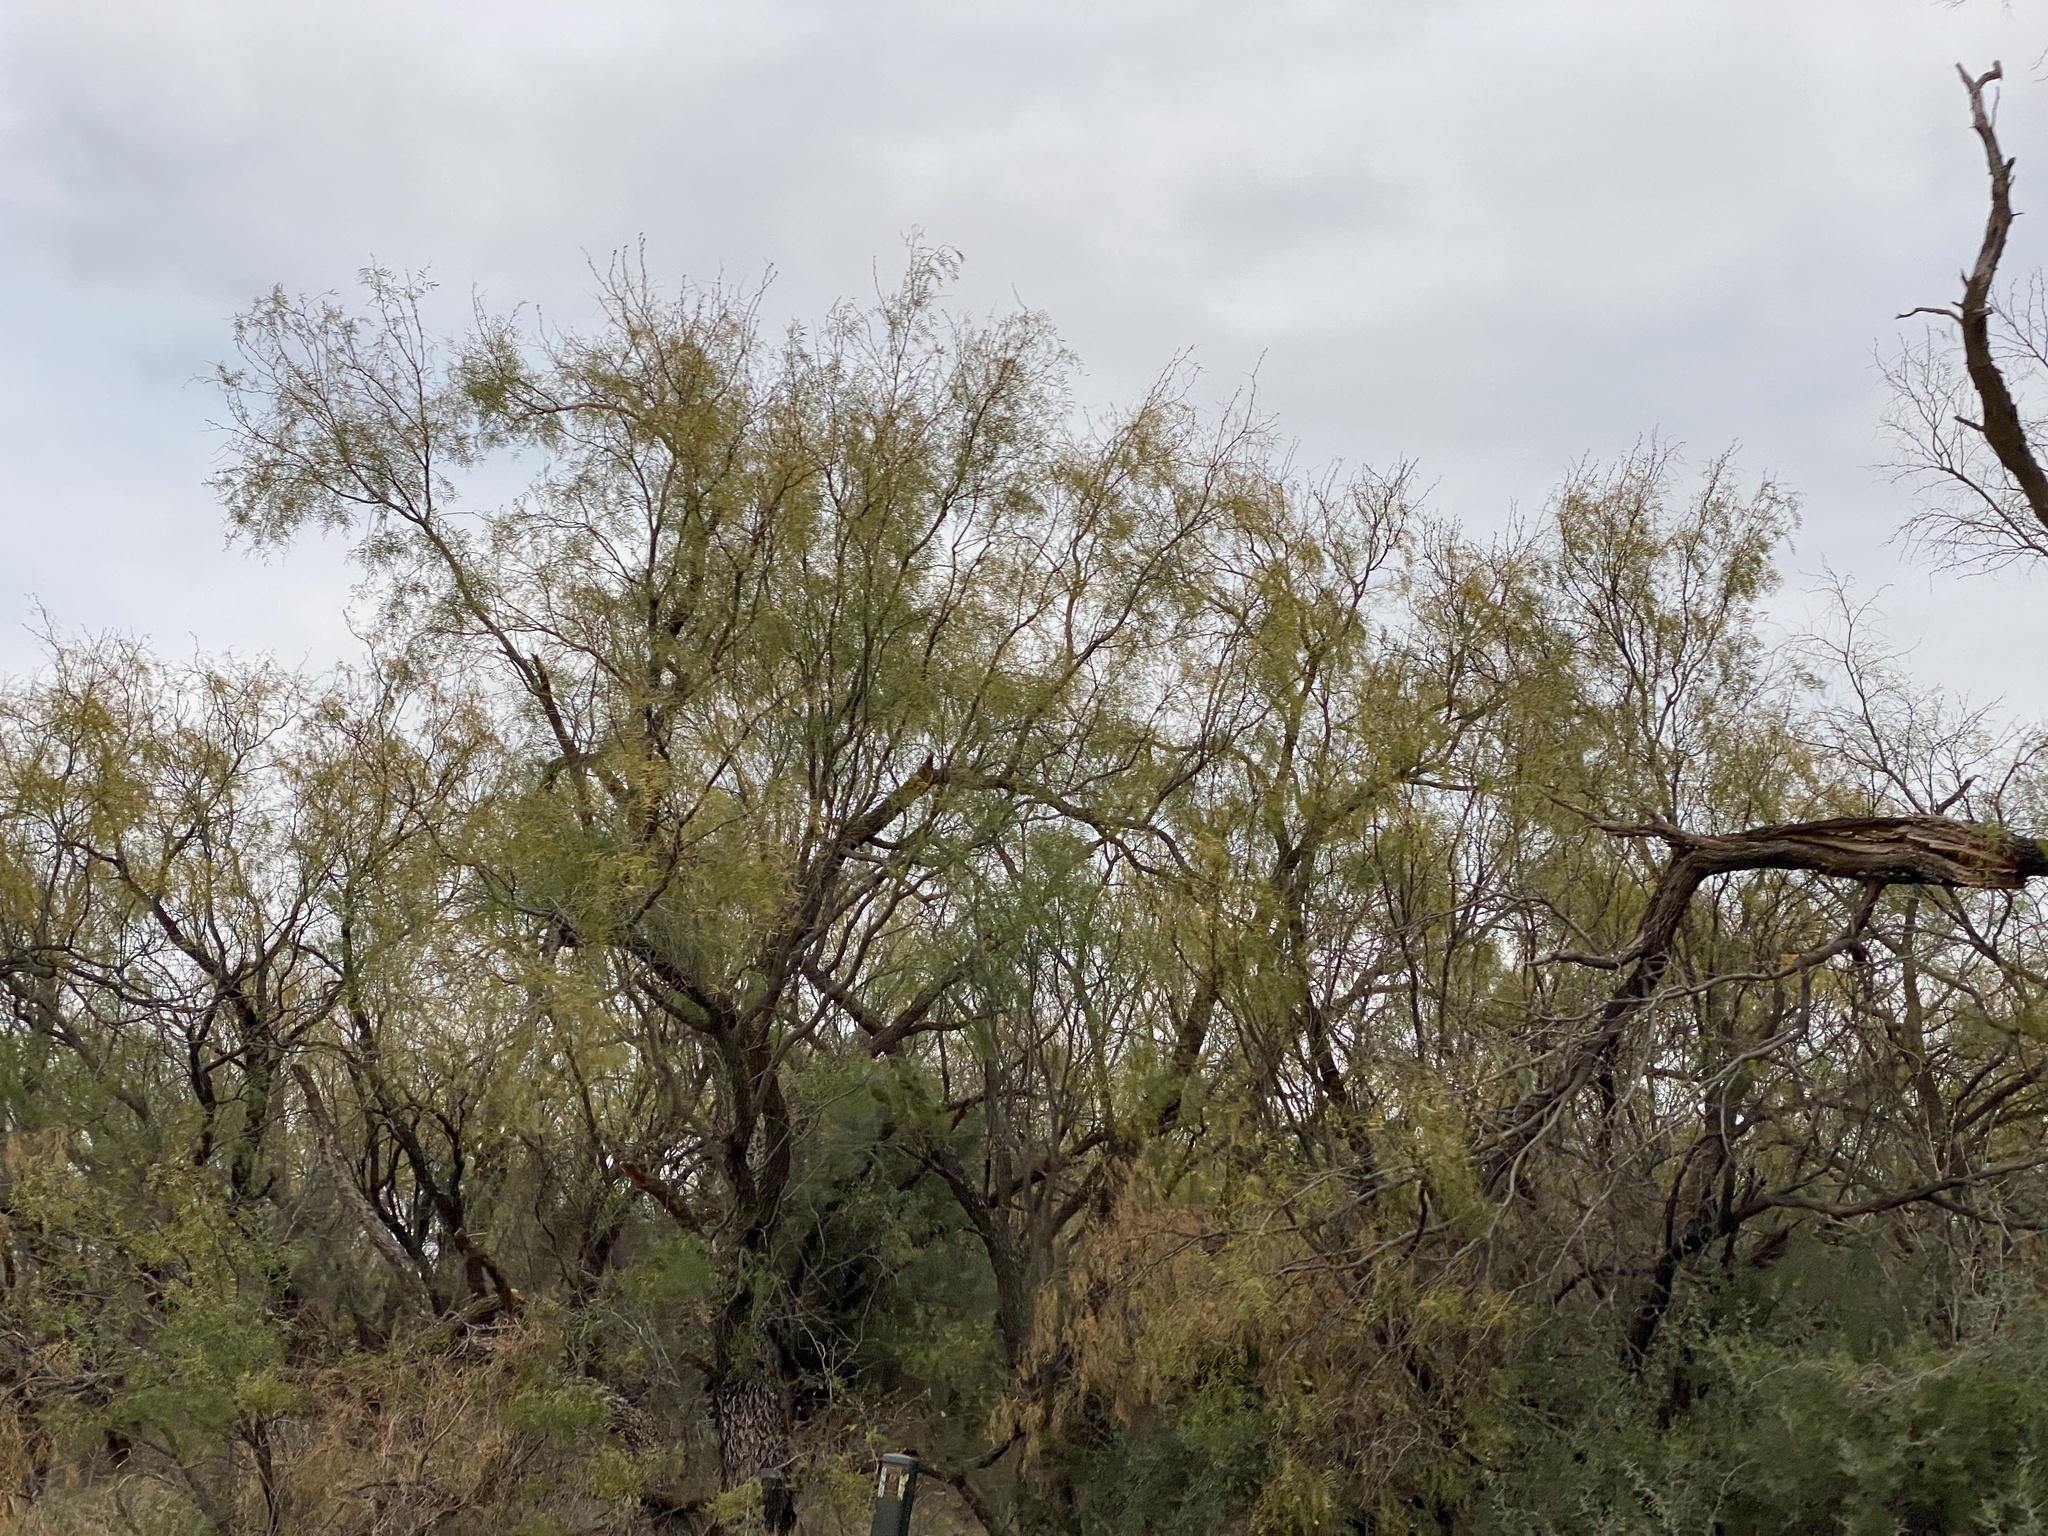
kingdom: Plantae
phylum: Tracheophyta
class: Magnoliopsida
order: Fabales
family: Fabaceae
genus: Prosopis
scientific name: Prosopis glandulosa
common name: Honey mesquite
